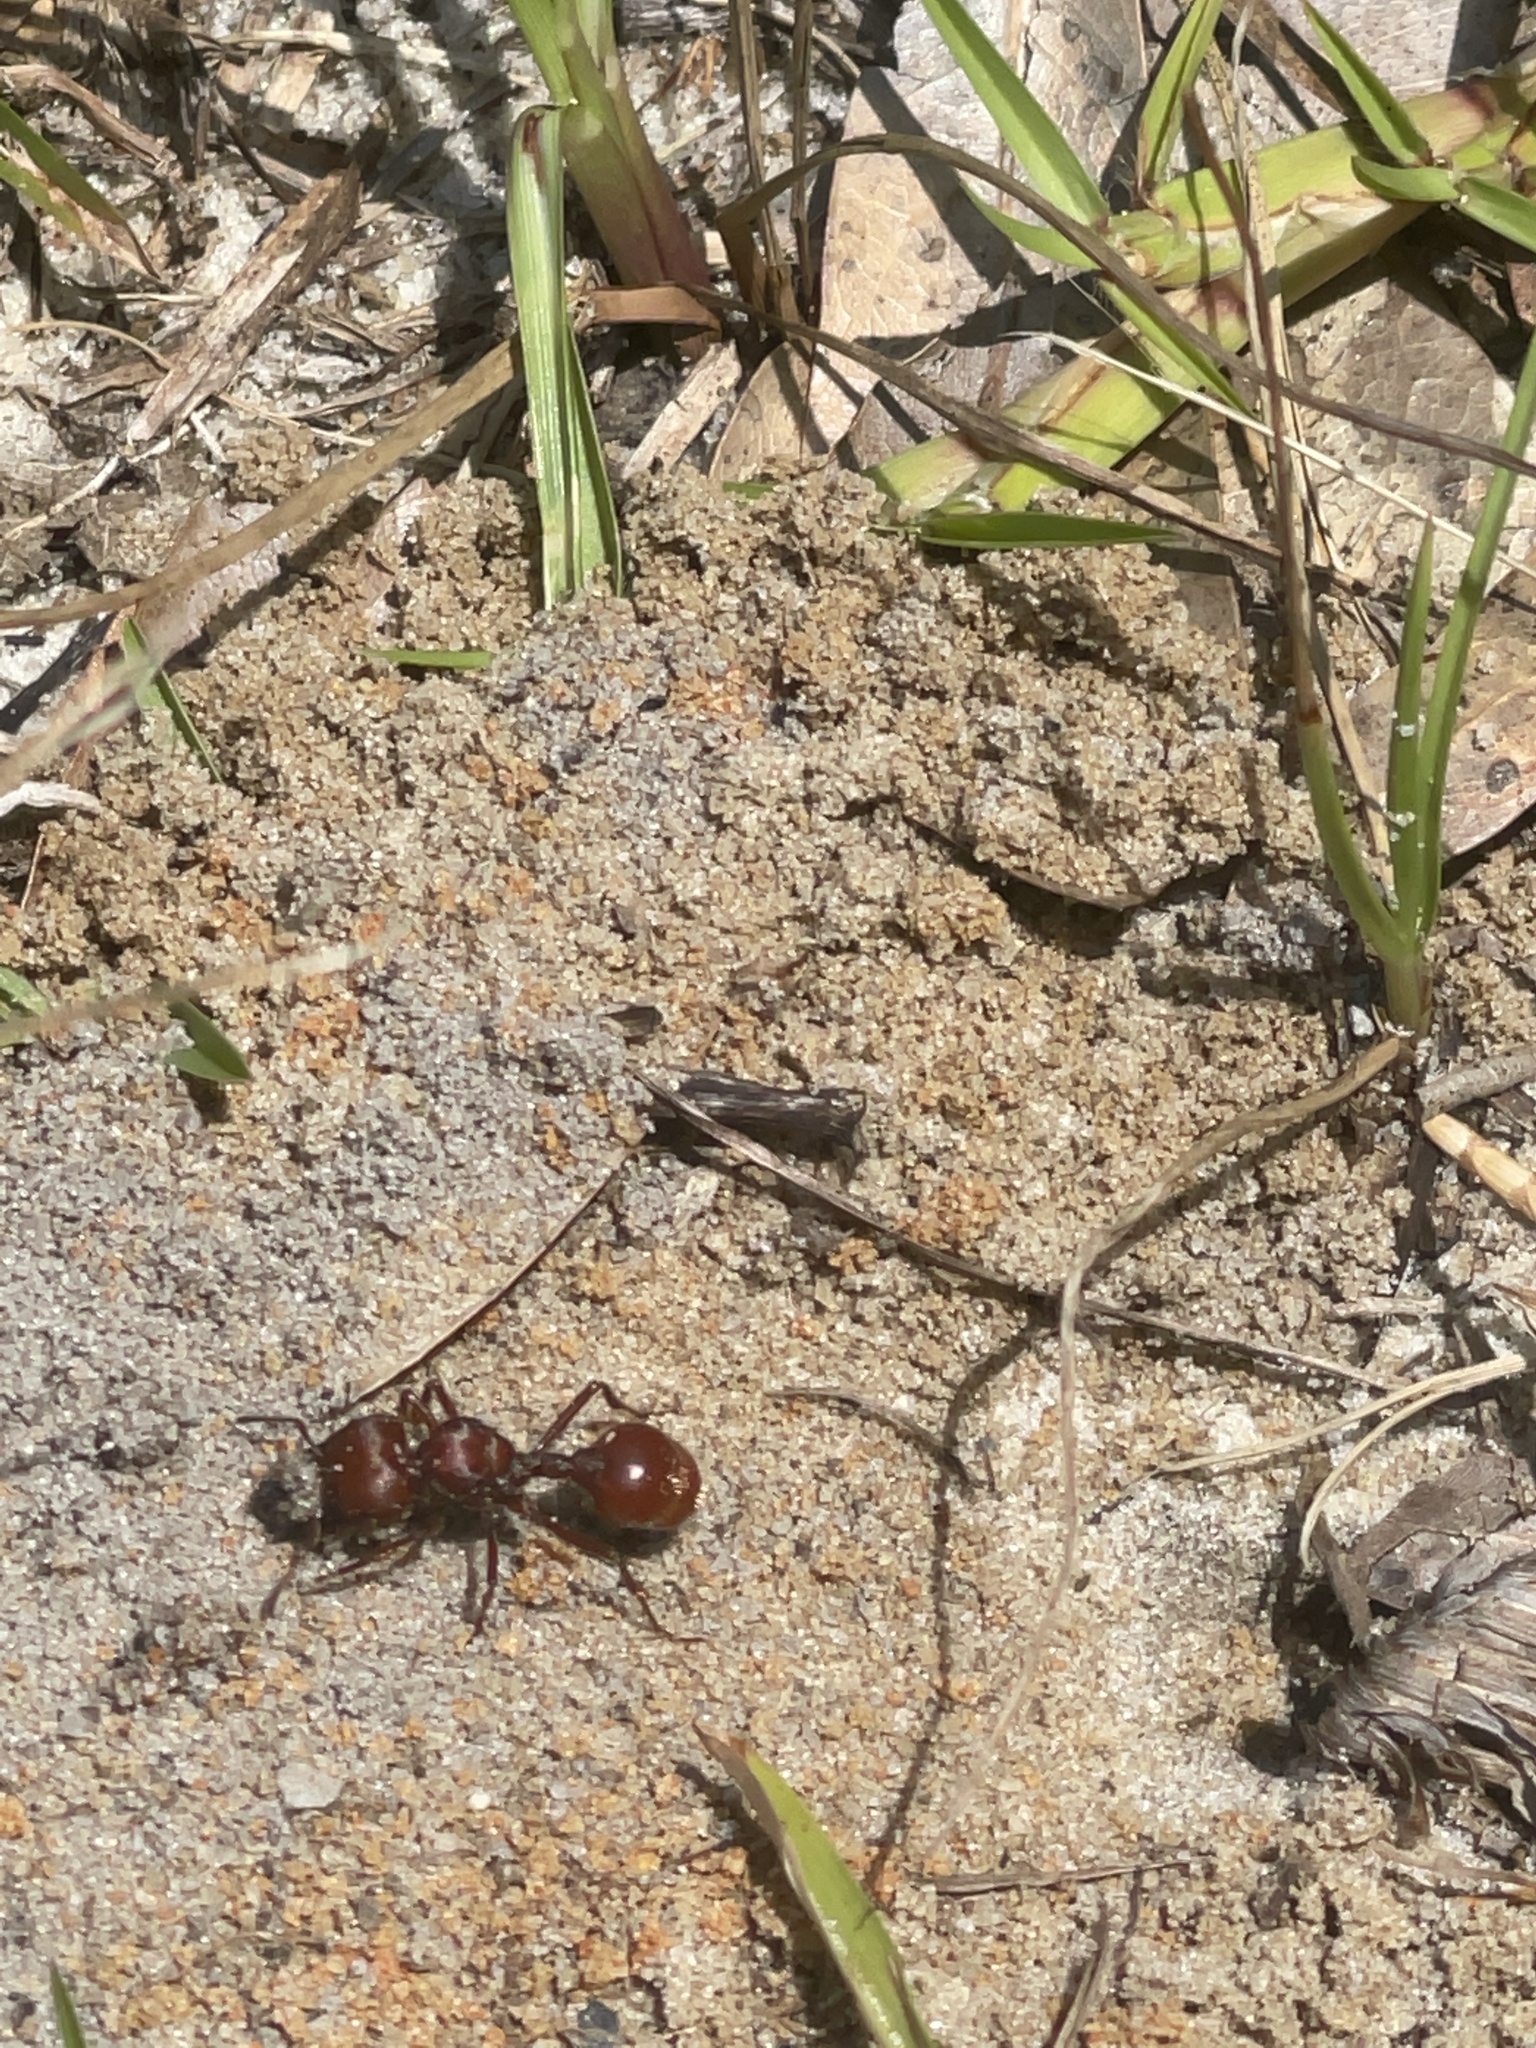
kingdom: Animalia
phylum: Arthropoda
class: Insecta
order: Hymenoptera
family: Formicidae
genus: Pogonomyrmex
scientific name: Pogonomyrmex badius
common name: Florida harvester ant
